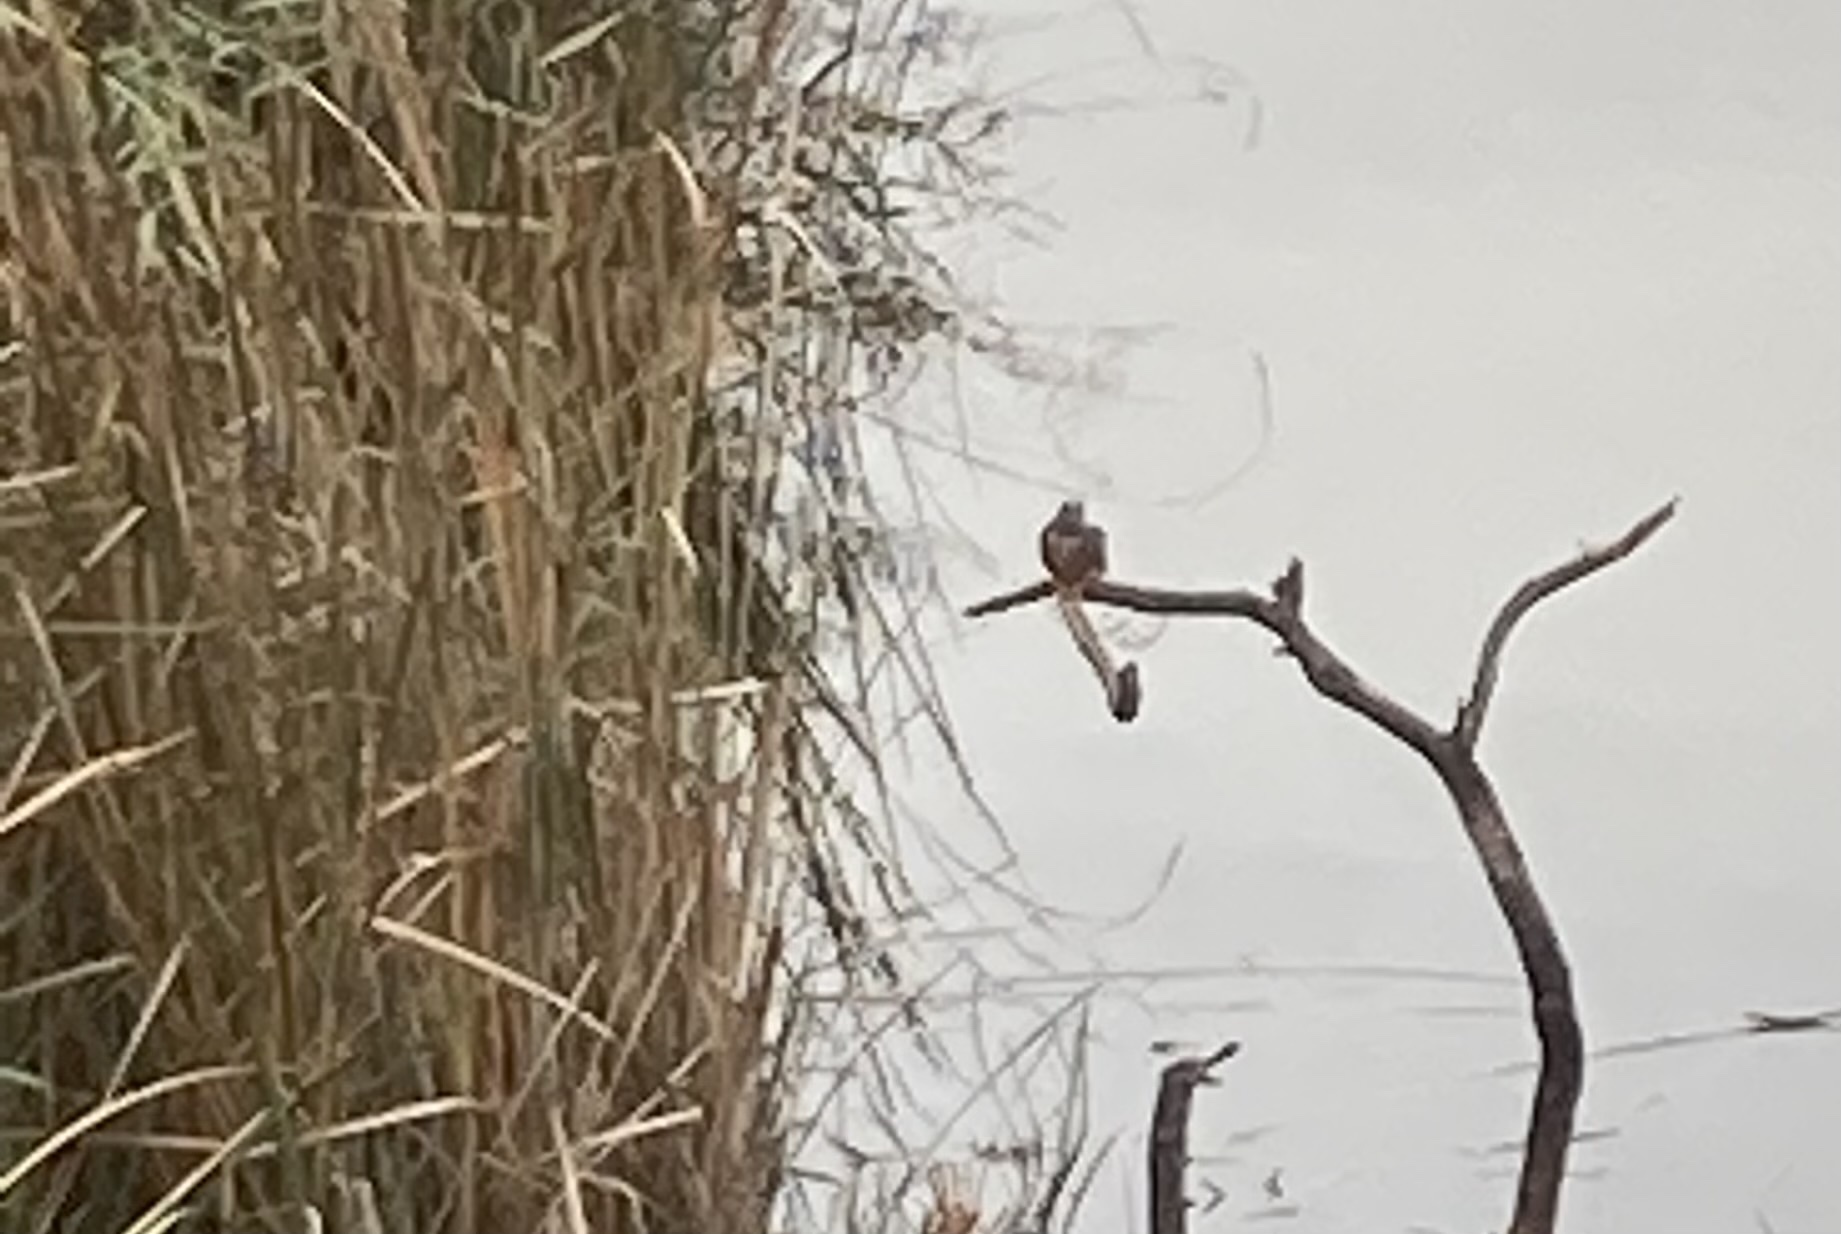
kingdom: Animalia
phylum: Chordata
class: Aves
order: Coraciiformes
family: Alcedinidae
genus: Alcedo
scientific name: Alcedo atthis
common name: Common kingfisher
